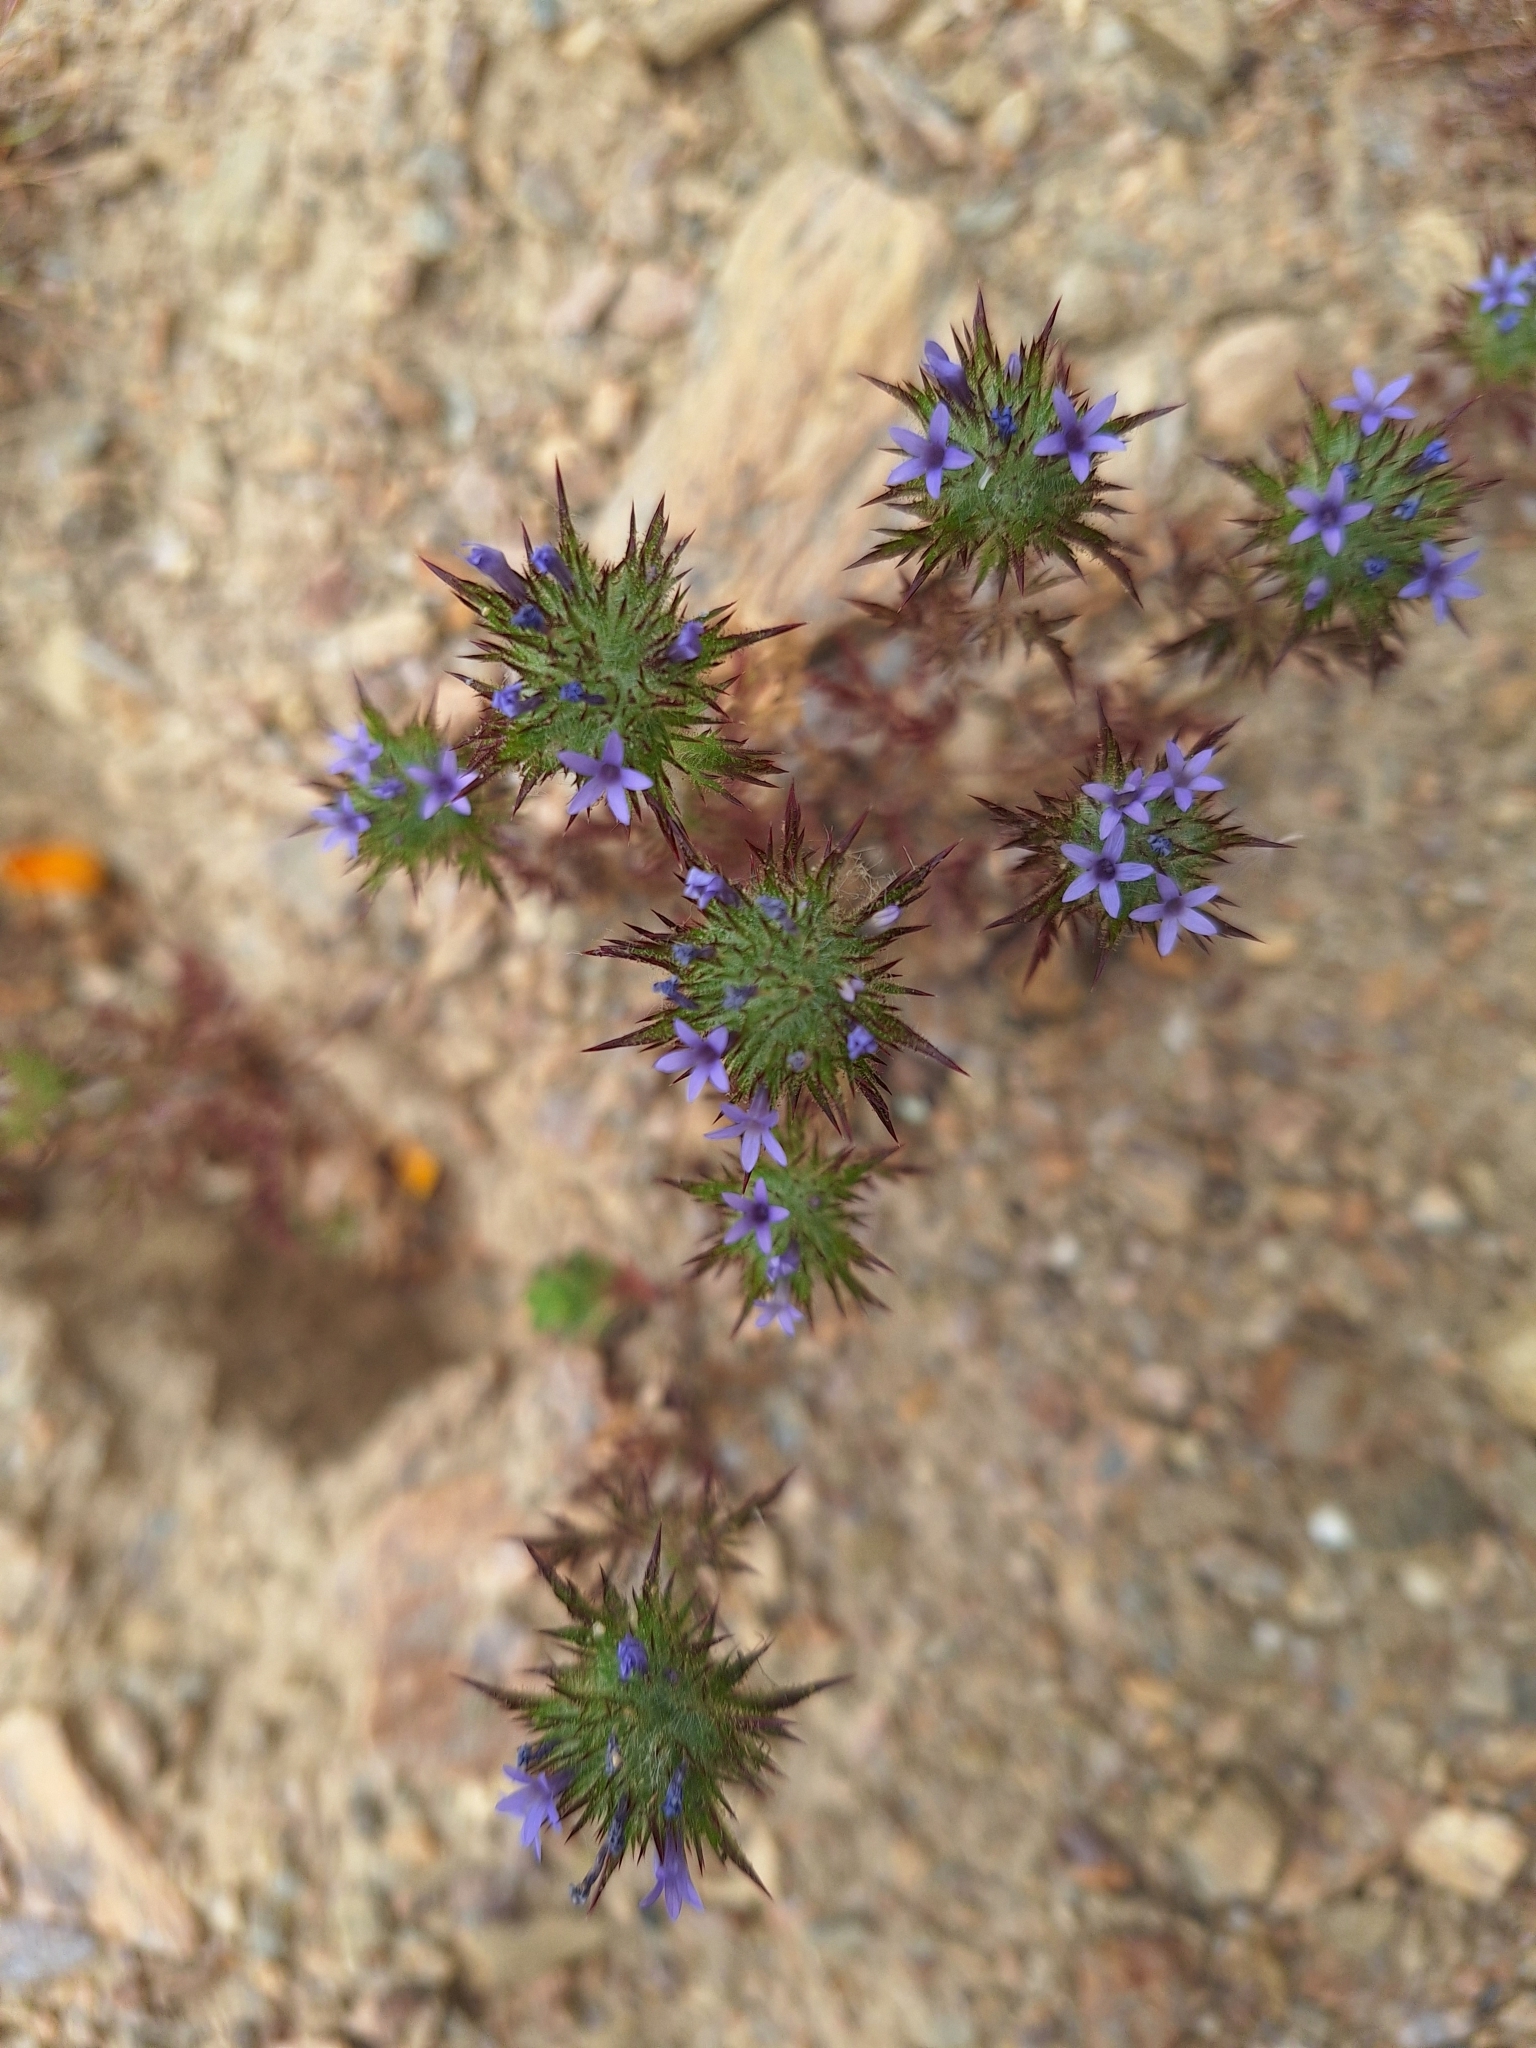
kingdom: Plantae
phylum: Tracheophyta
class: Magnoliopsida
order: Ericales
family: Polemoniaceae
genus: Navarretia
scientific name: Navarretia squarrosa
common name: Skunkweed
